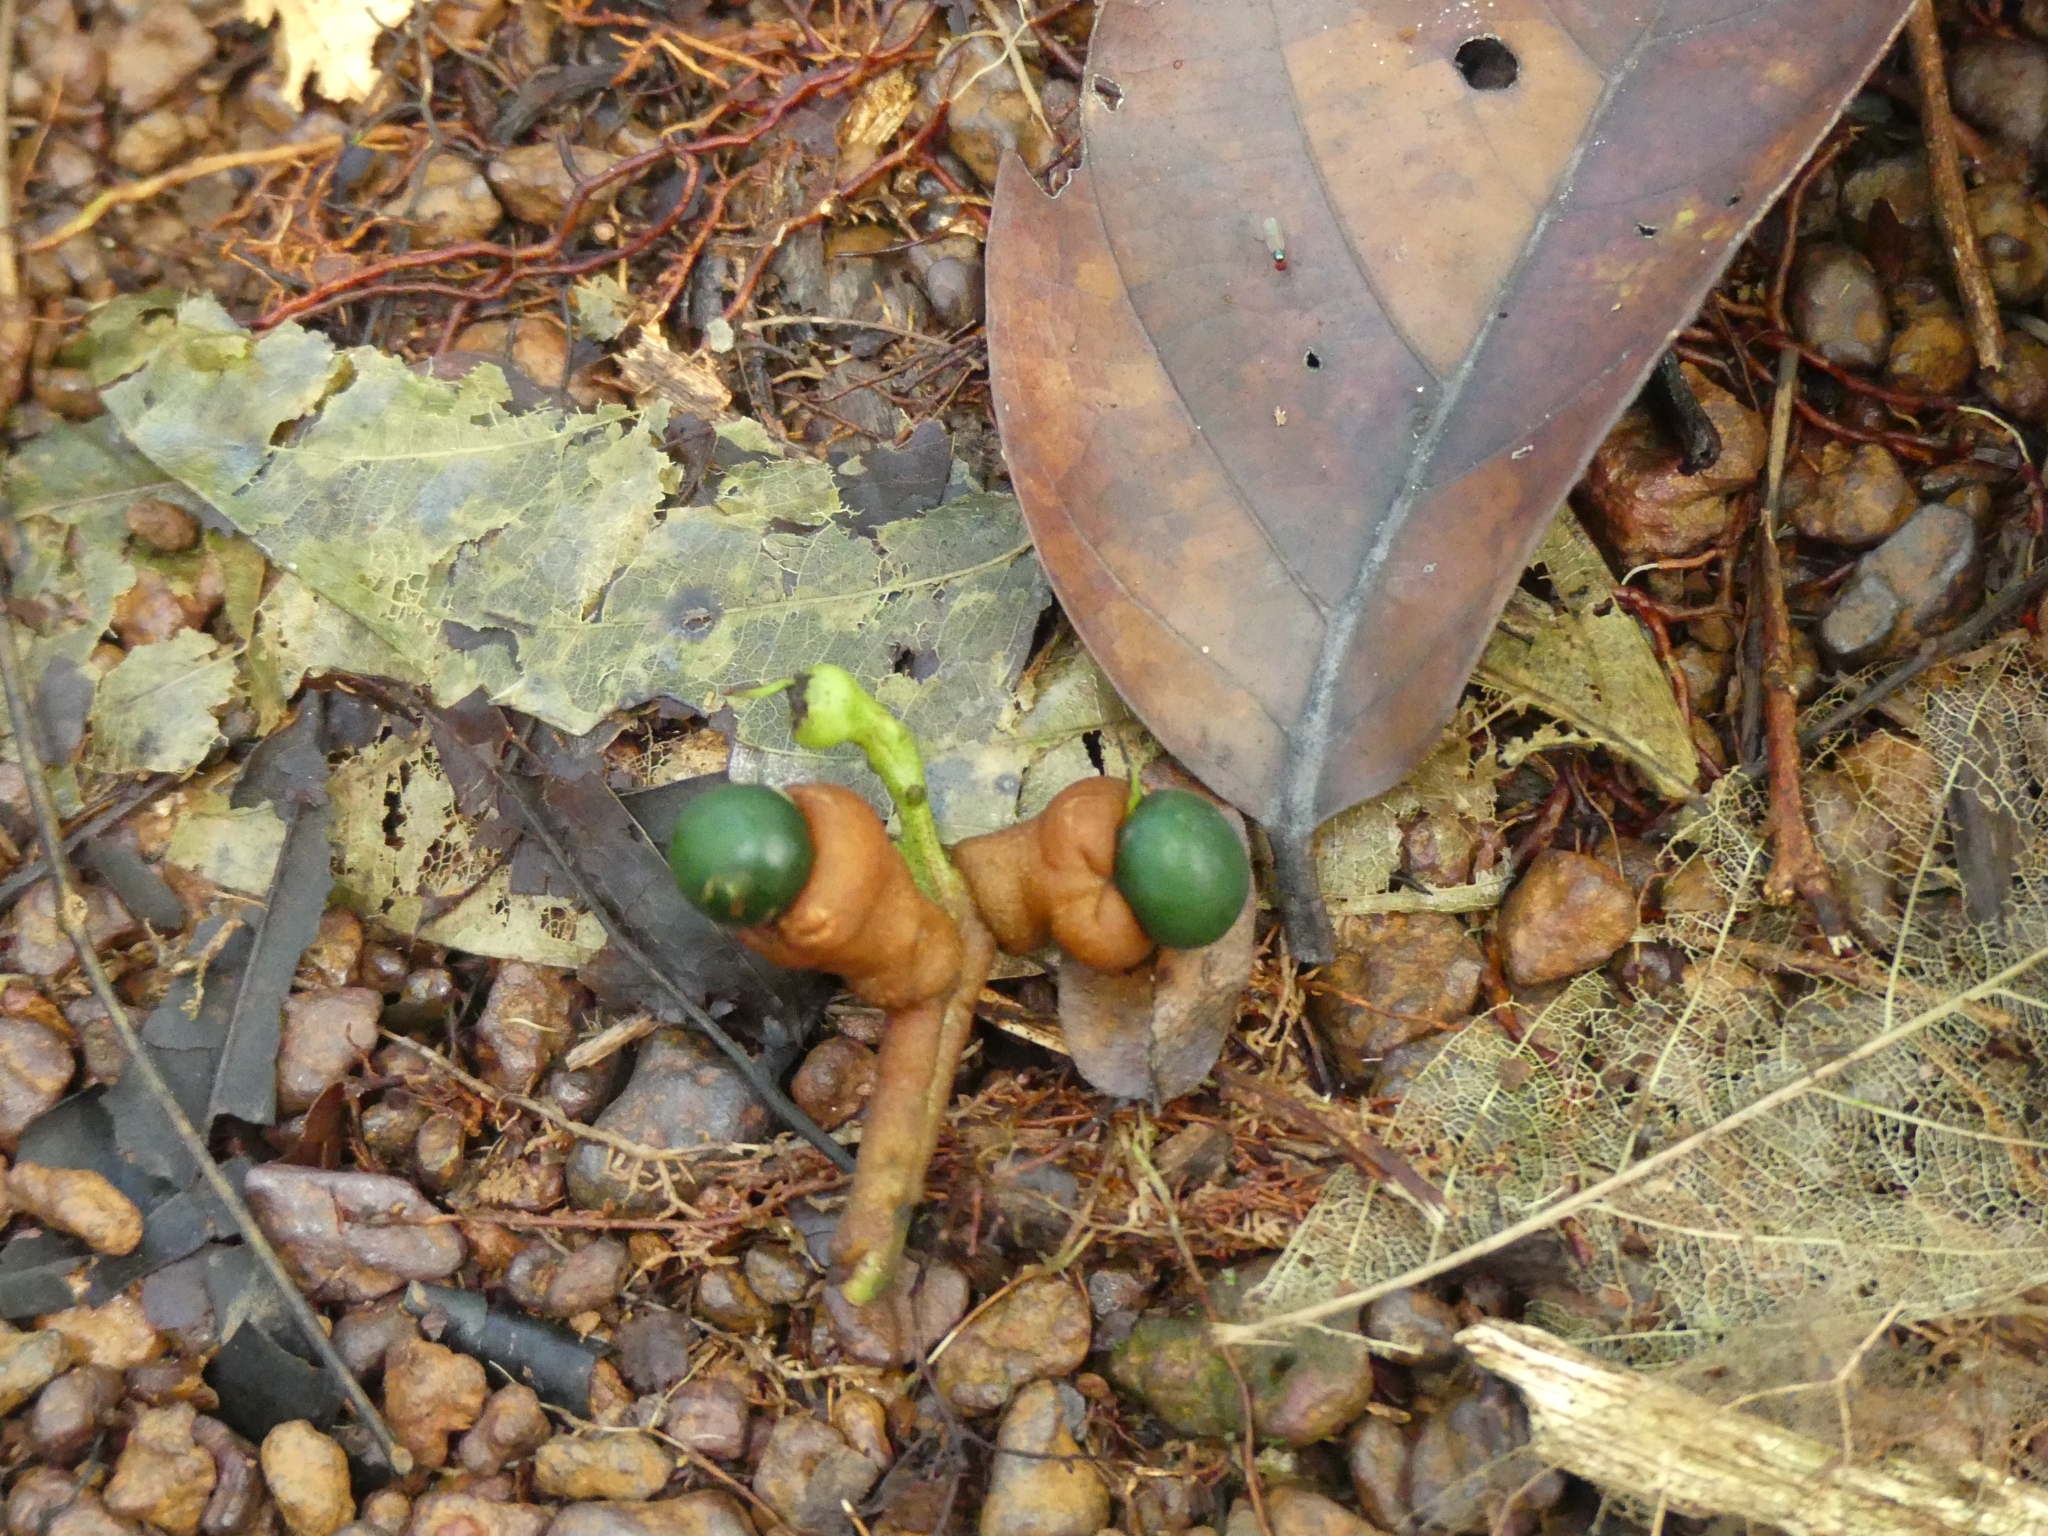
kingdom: Plantae
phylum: Tracheophyta
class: Magnoliopsida
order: Caryophyllales
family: Rhabdodendraceae
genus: Rhabdodendron
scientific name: Rhabdodendron amazonicum
